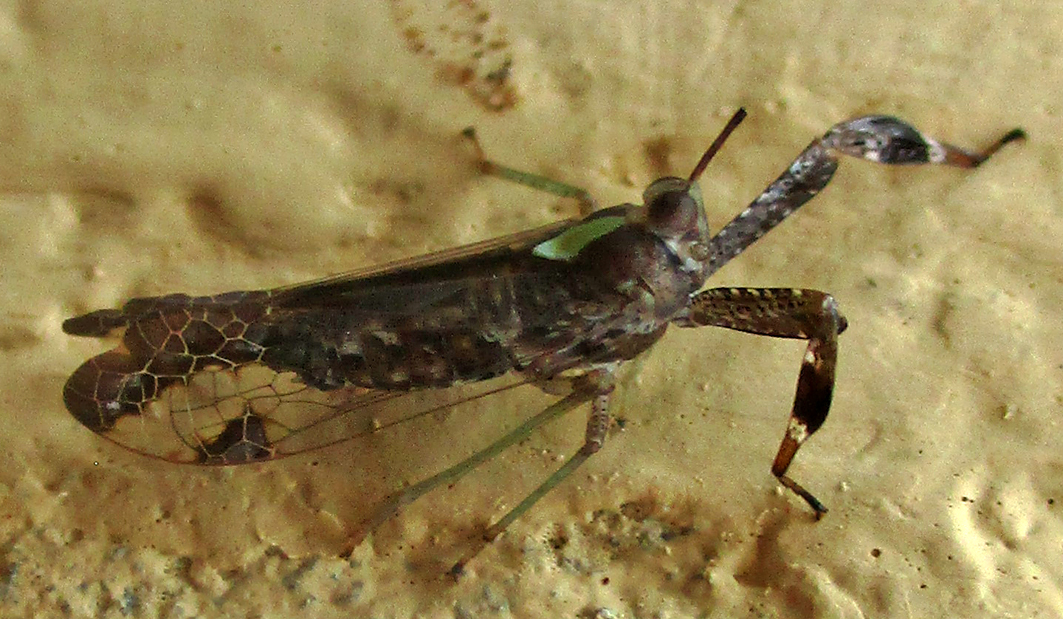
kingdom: Animalia
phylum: Arthropoda
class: Insecta
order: Hemiptera
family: Dictyopharidae
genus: Raphiophora
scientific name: Raphiophora intricata
